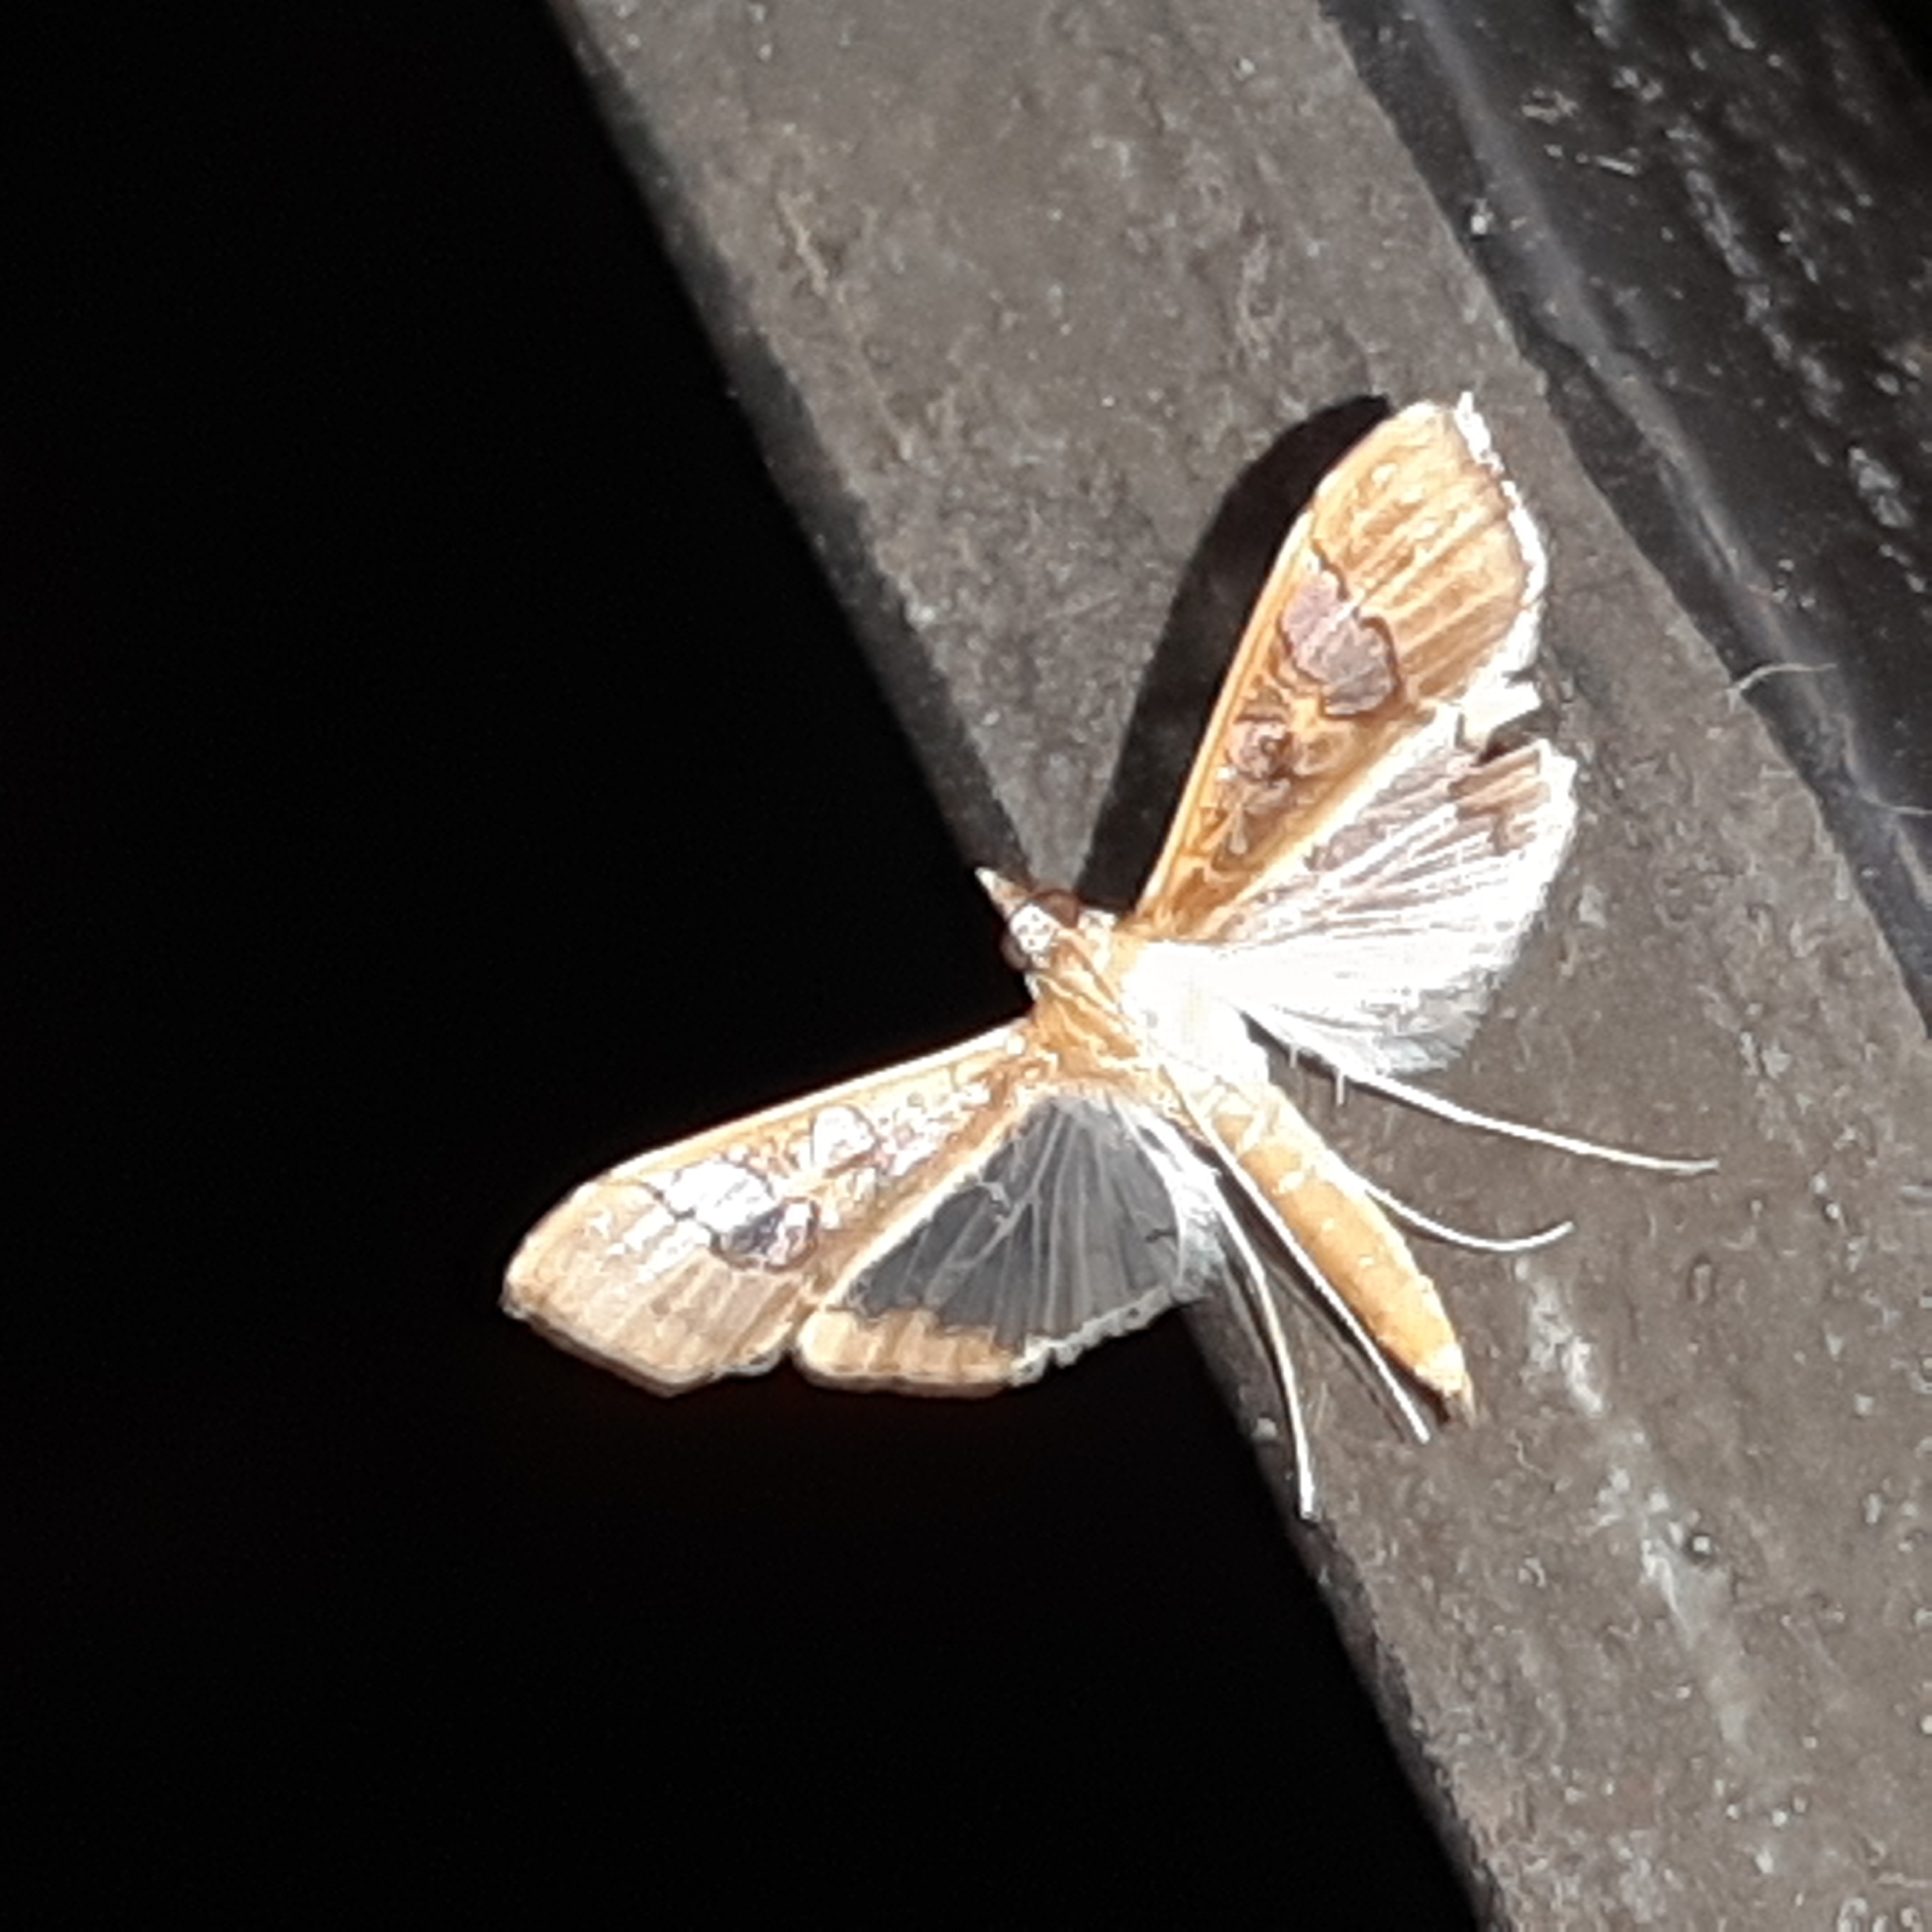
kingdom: Animalia
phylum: Arthropoda
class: Insecta
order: Lepidoptera
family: Crambidae
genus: Maruca
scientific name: Maruca vitrata
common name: Maruca pod borer
